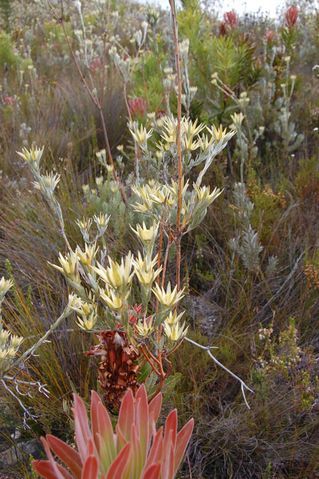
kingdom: Plantae
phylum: Tracheophyta
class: Magnoliopsida
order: Proteales
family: Proteaceae
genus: Leucadendron
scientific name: Leucadendron uliginosum
